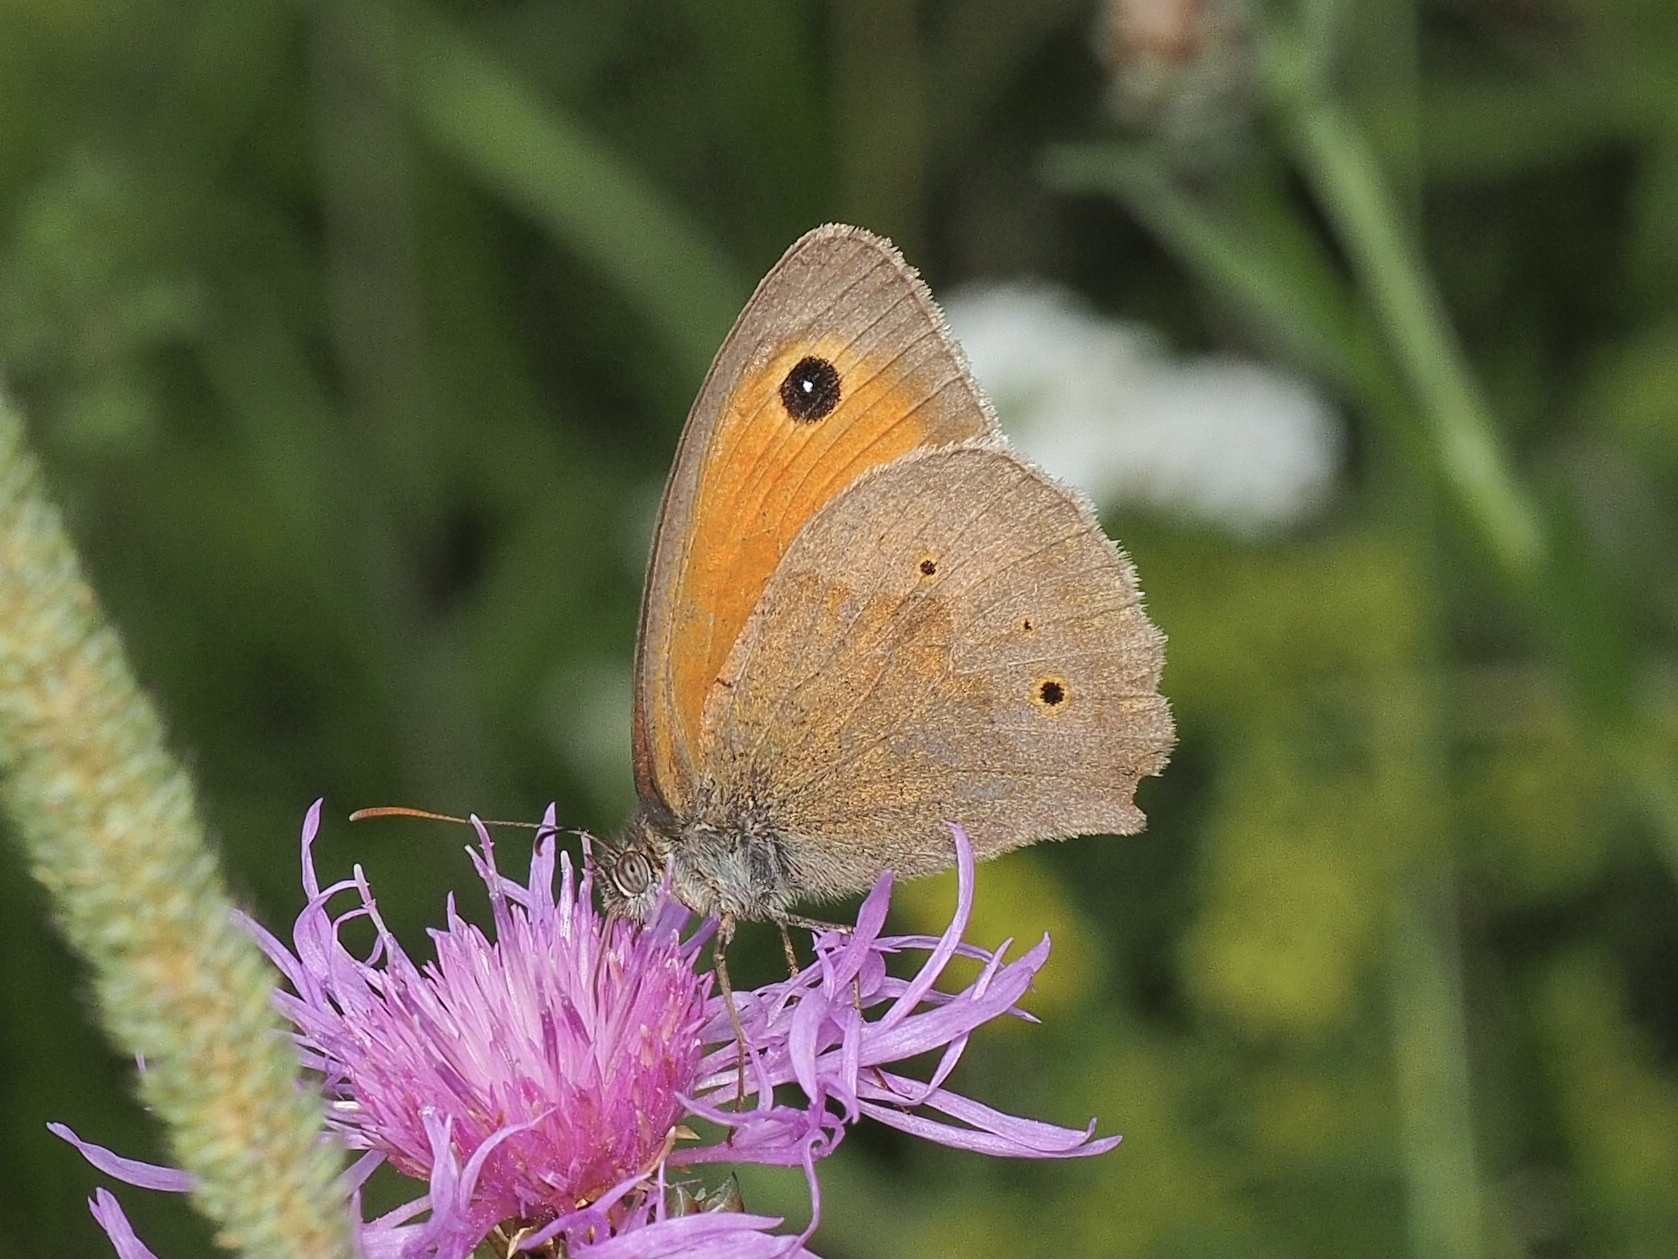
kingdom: Animalia
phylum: Arthropoda
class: Insecta
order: Lepidoptera
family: Nymphalidae
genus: Maniola
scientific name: Maniola jurtina
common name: Meadow brown
